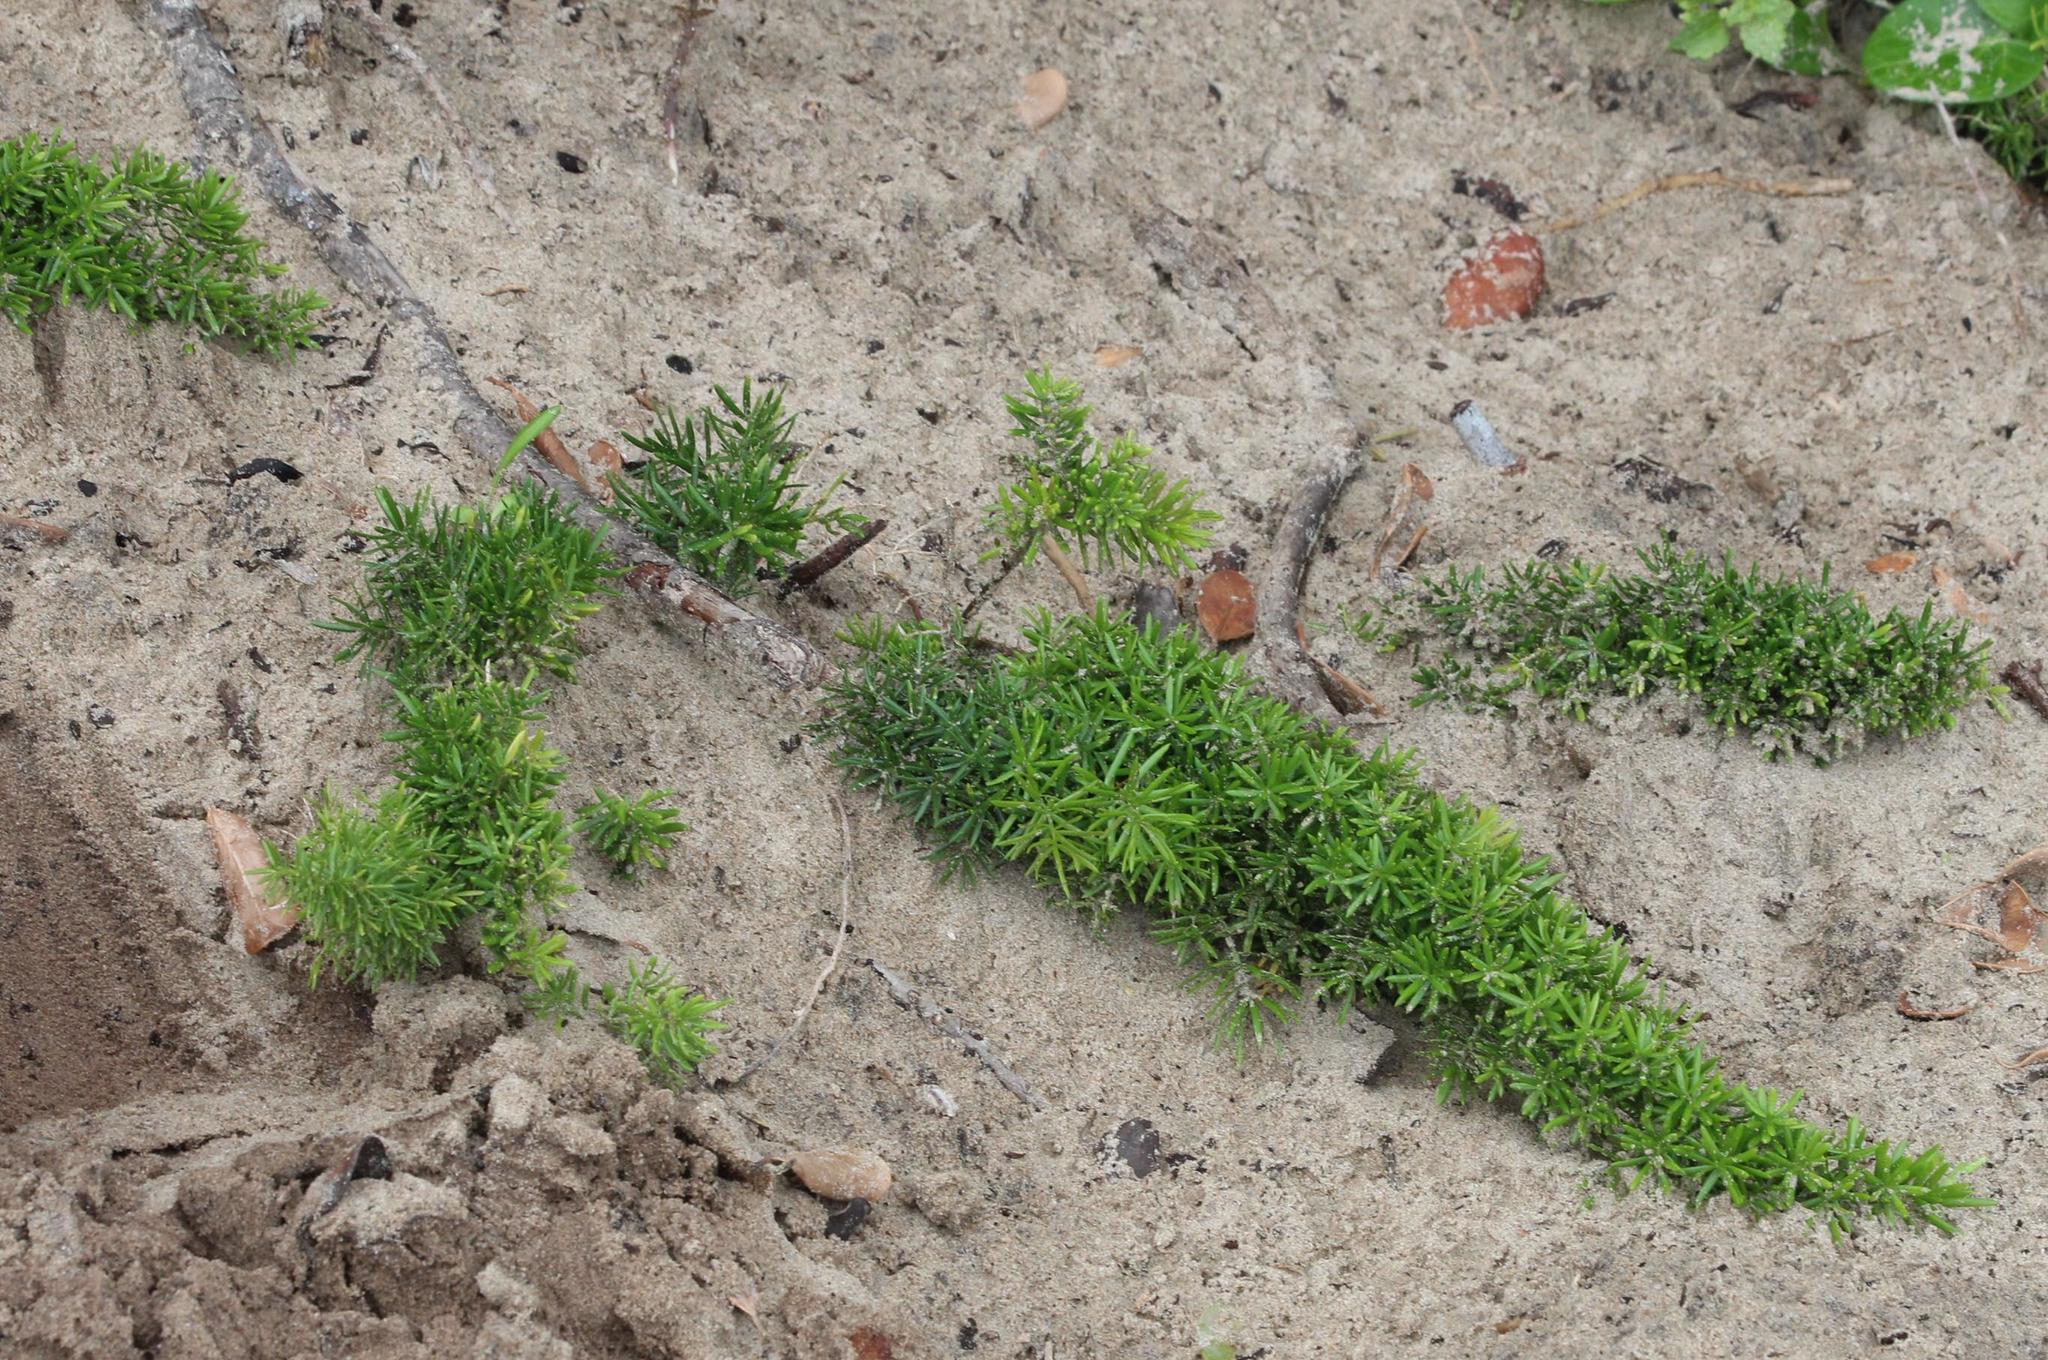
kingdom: Plantae
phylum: Tracheophyta
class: Liliopsida
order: Asparagales
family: Asparagaceae
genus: Asparagus
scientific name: Asparagus densiflorus
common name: Asparagus fern
